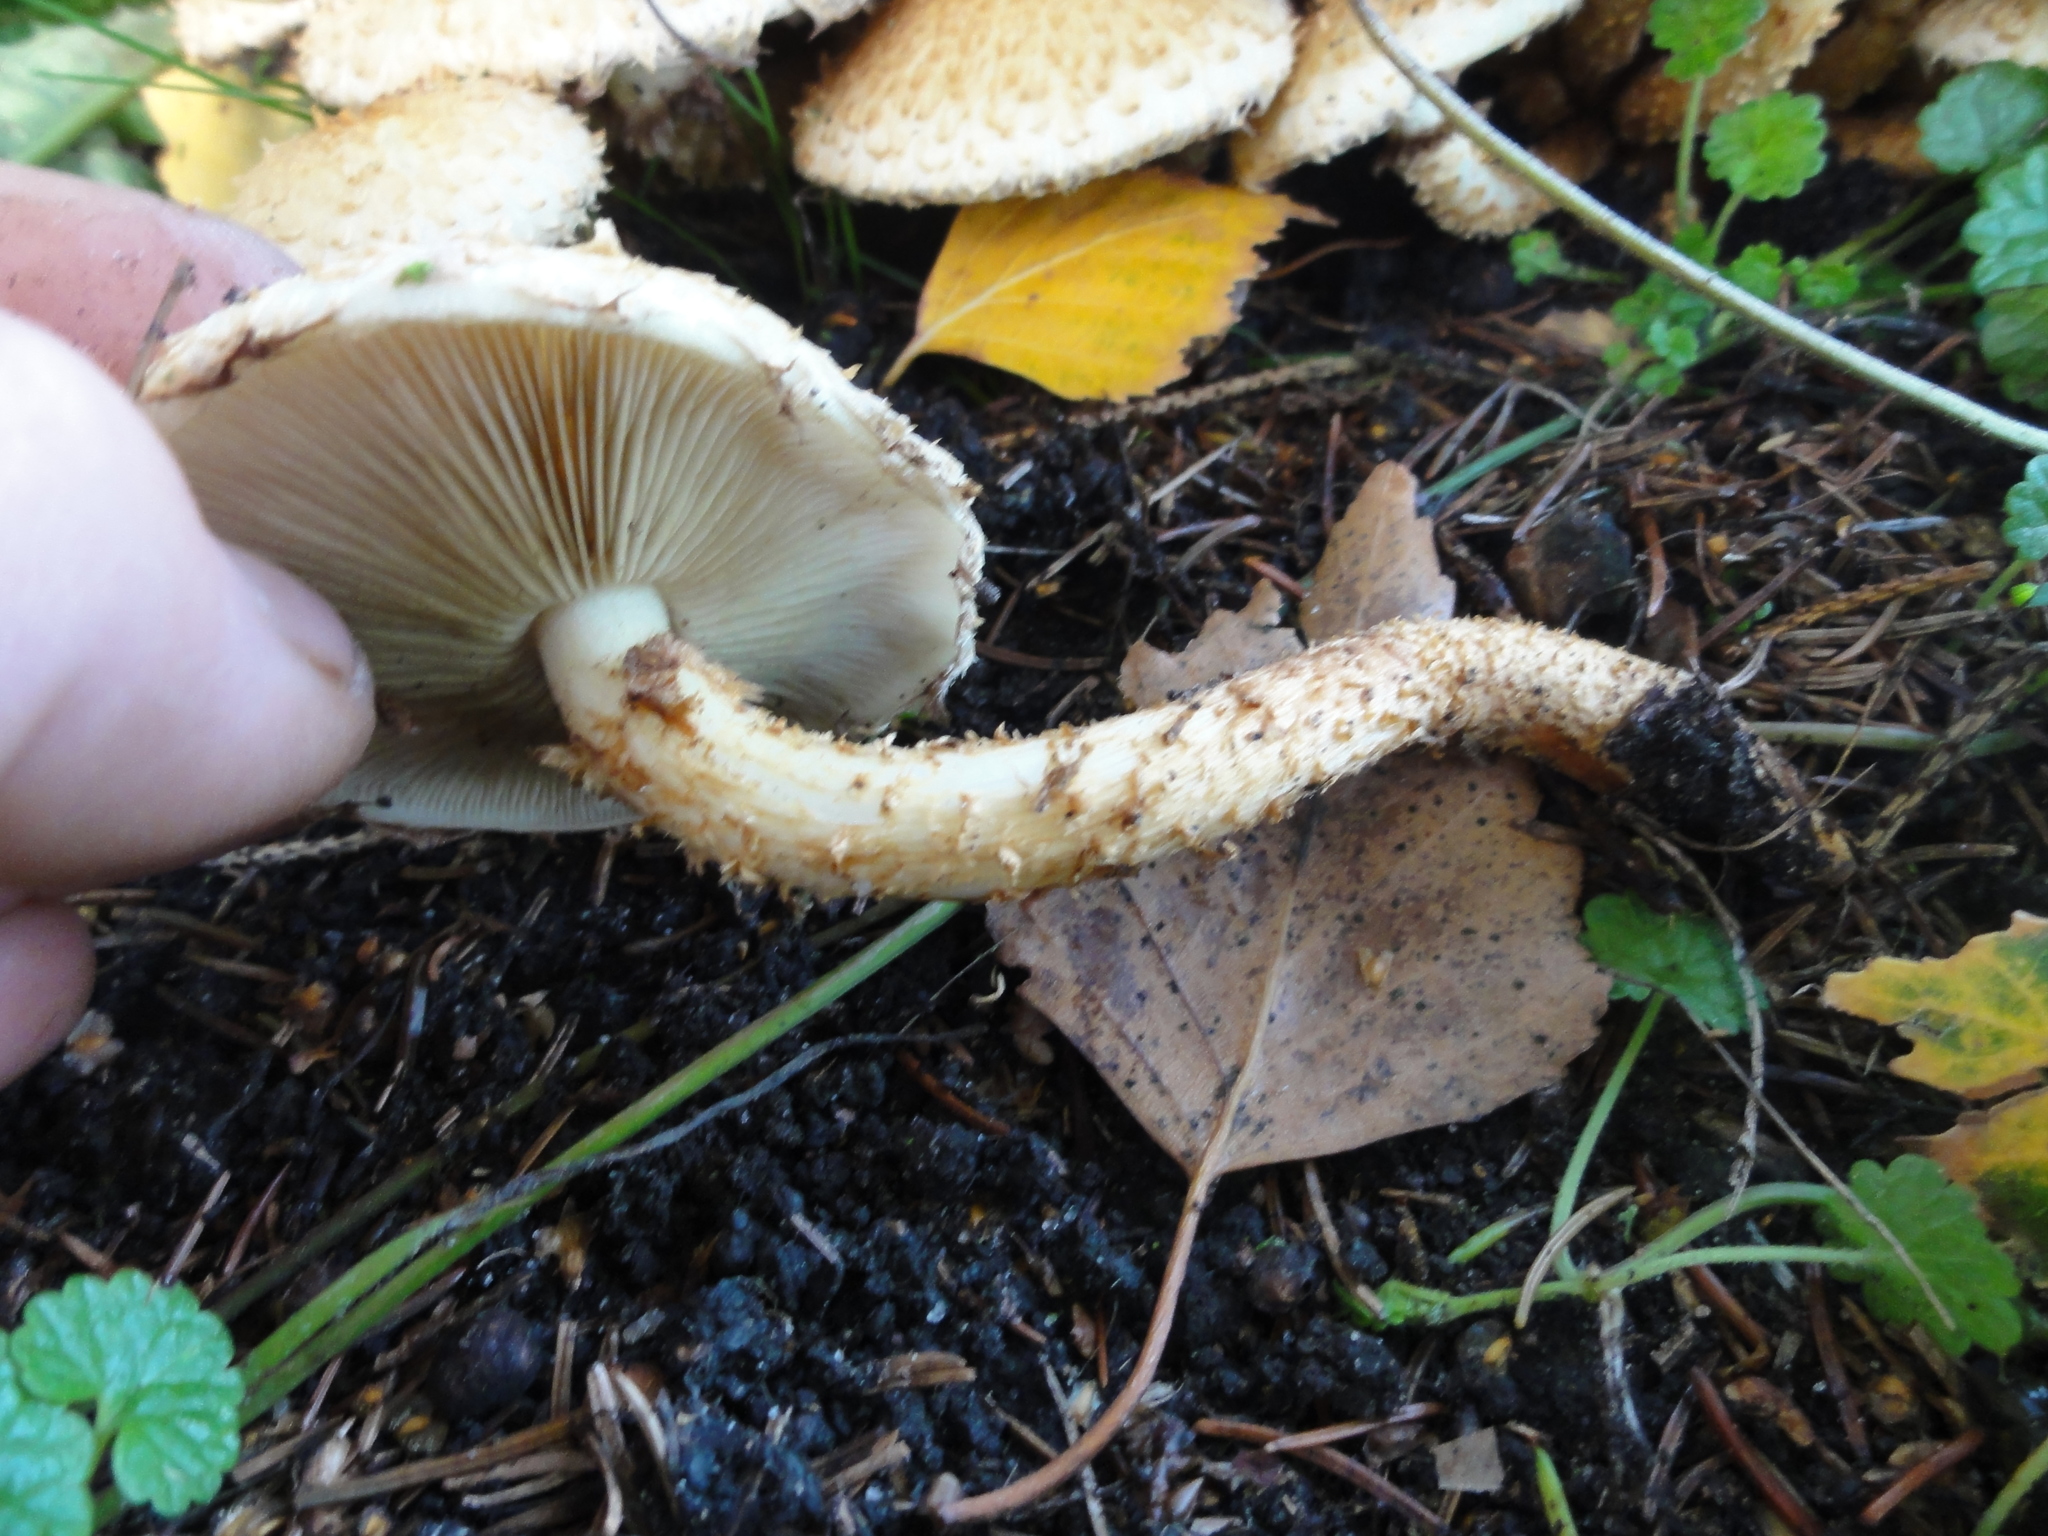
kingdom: Fungi
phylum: Basidiomycota
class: Agaricomycetes
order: Agaricales
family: Strophariaceae
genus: Pholiota
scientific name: Pholiota squarrosa
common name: Shaggy pholiota
